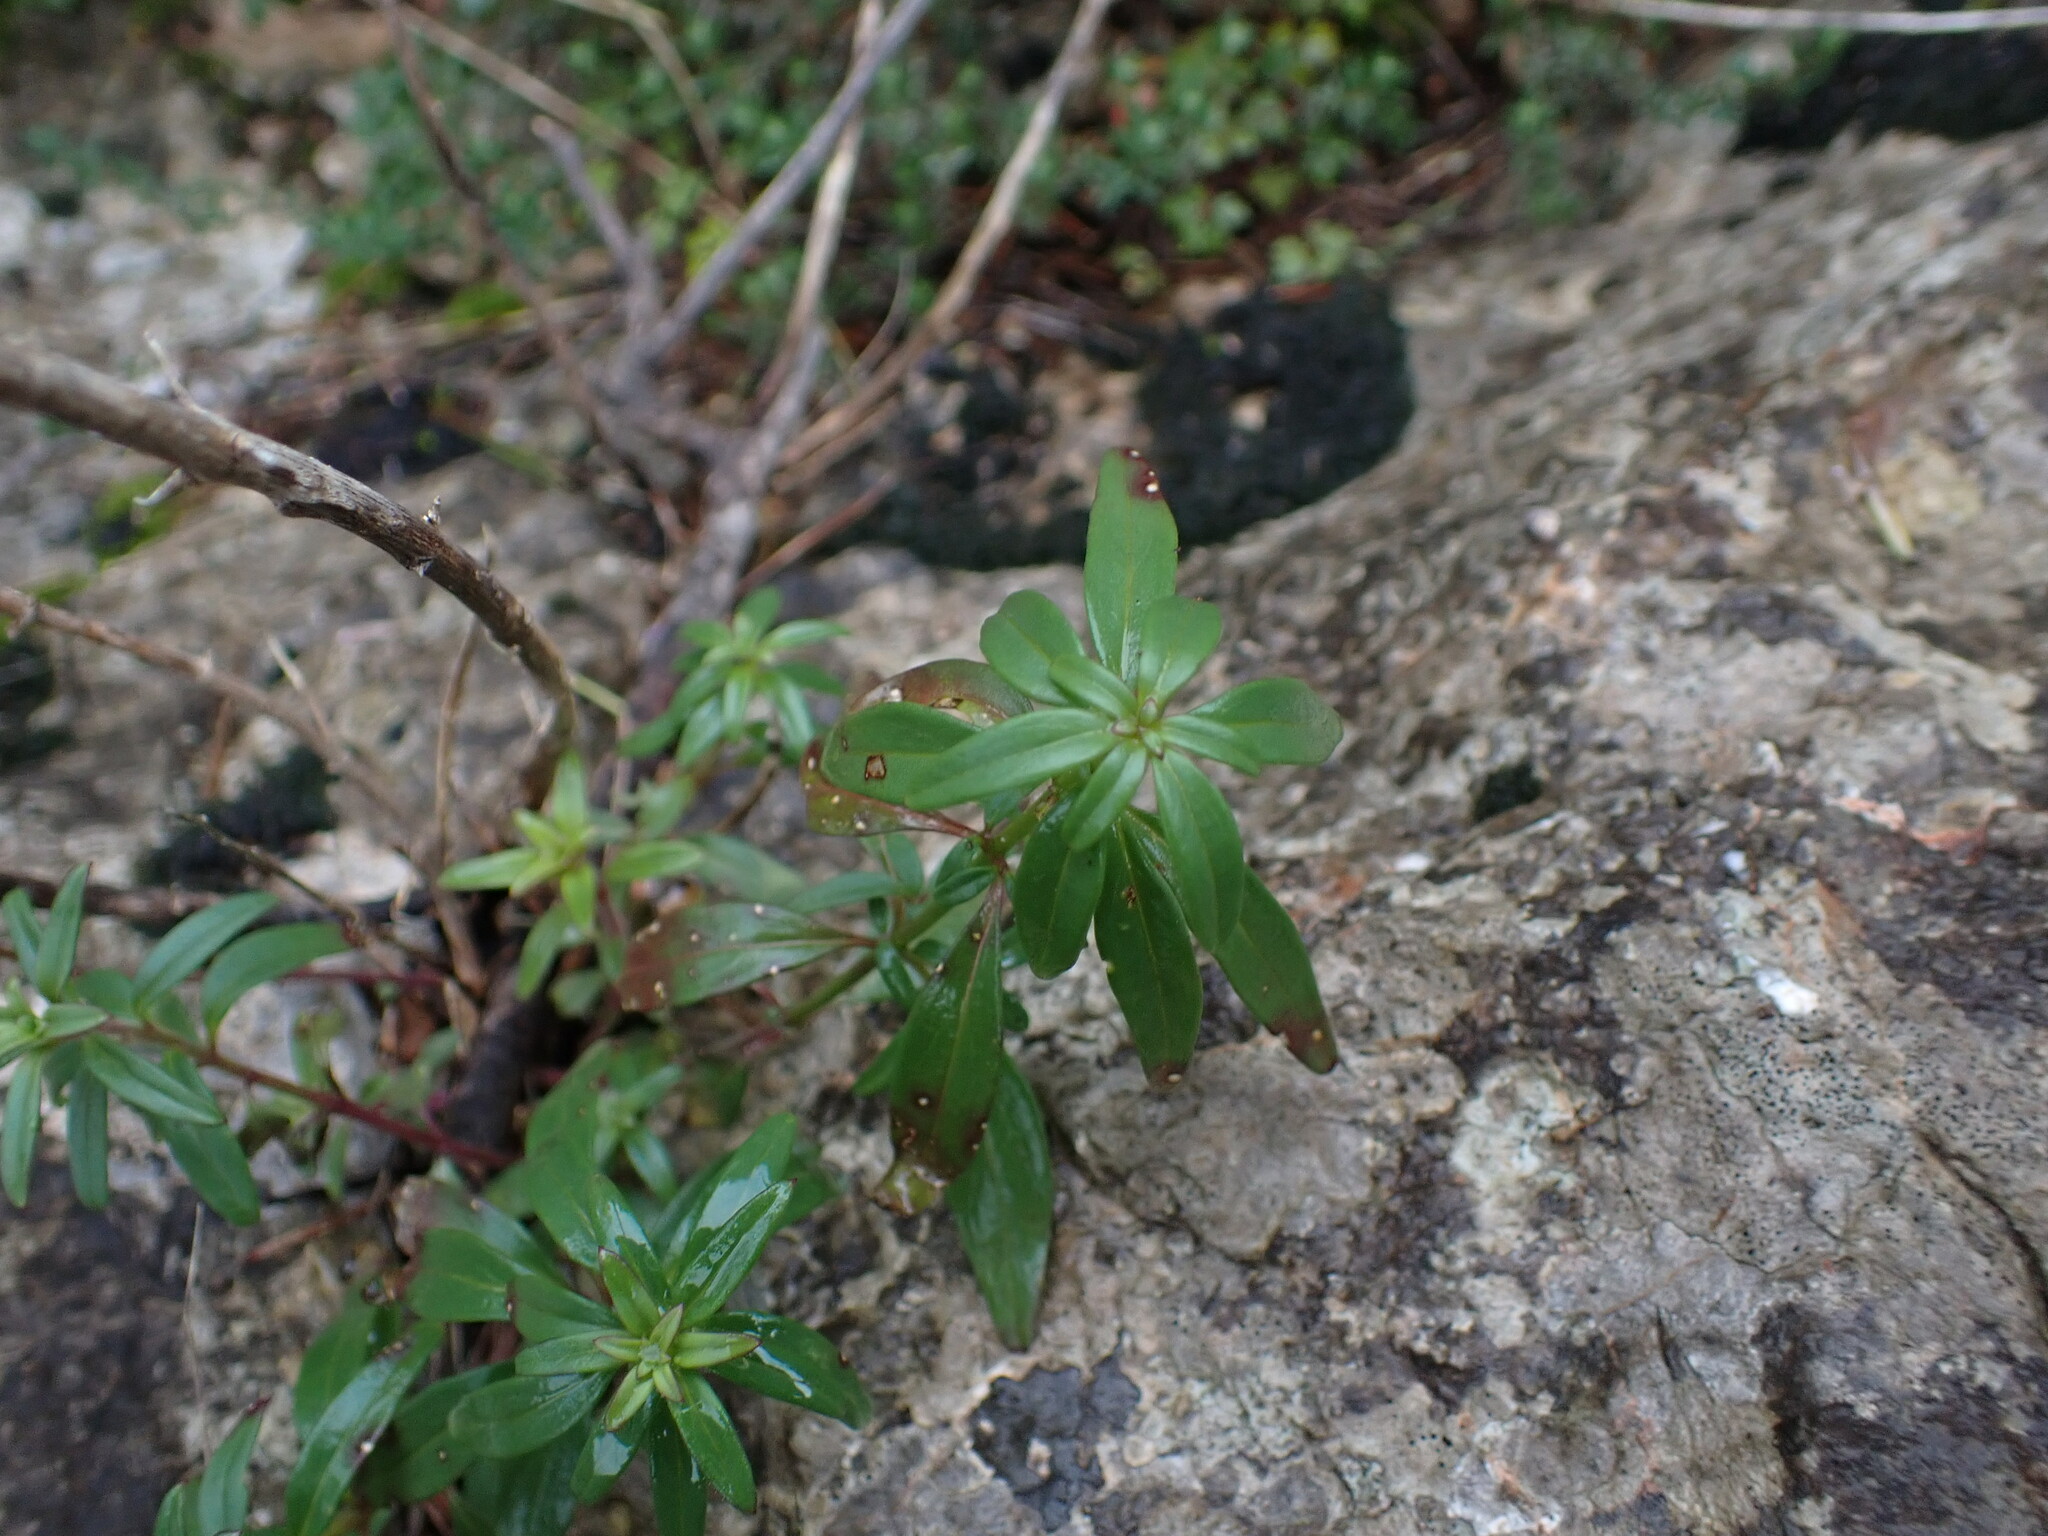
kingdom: Plantae
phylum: Tracheophyta
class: Magnoliopsida
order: Lamiales
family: Plantaginaceae
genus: Antirrhinum
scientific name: Antirrhinum majus
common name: Snapdragon
